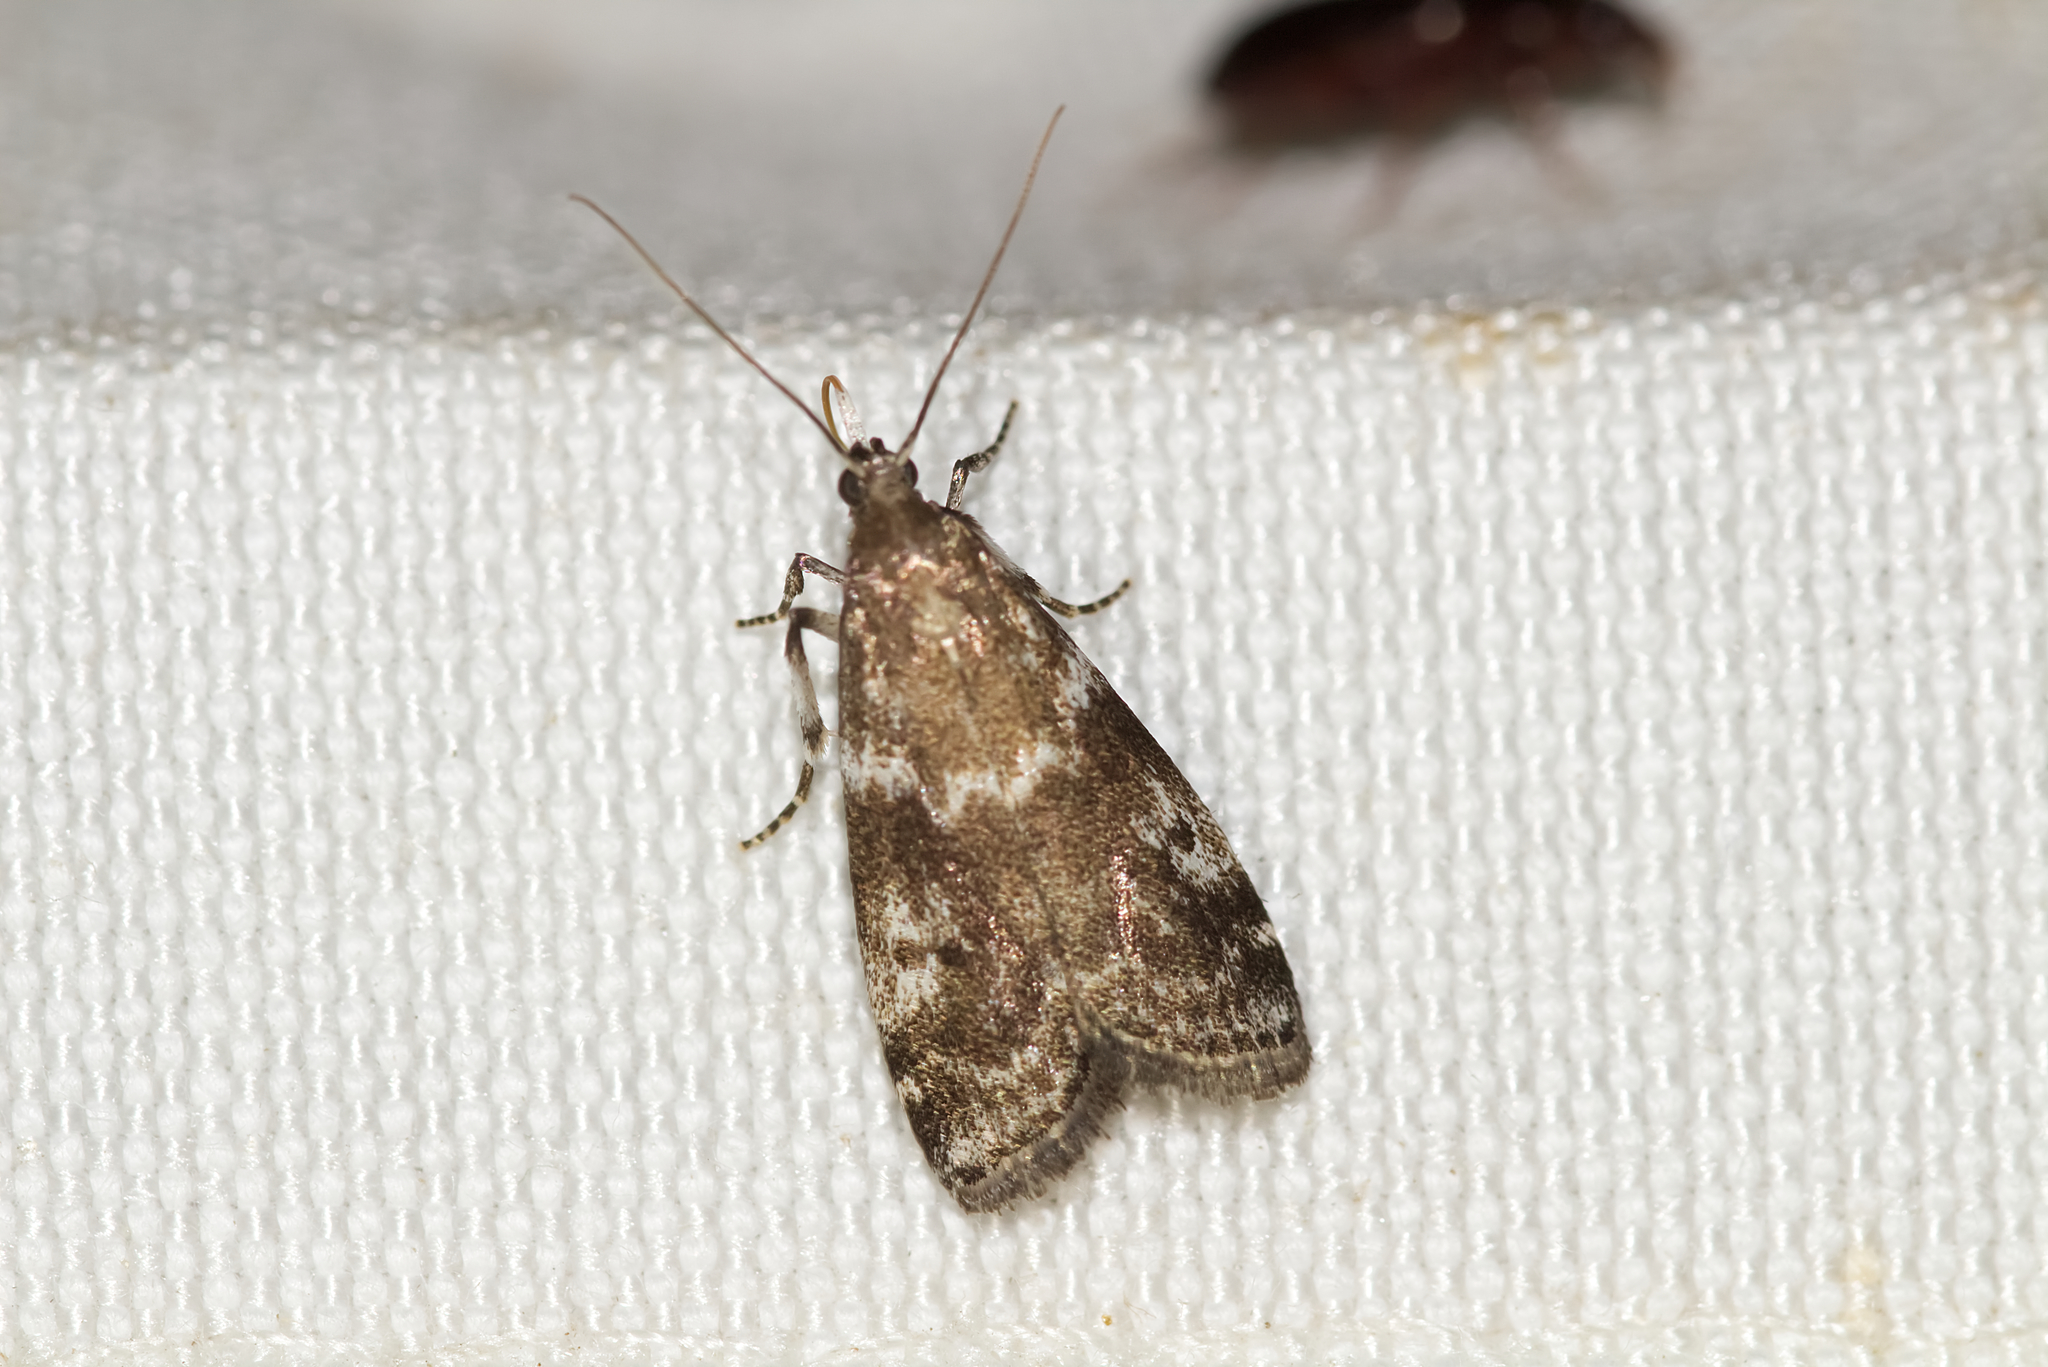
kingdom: Animalia
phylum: Arthropoda
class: Insecta
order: Lepidoptera
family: Pyralidae
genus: Assara
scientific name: Assara terebrella
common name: Dark spruce knot-horn
